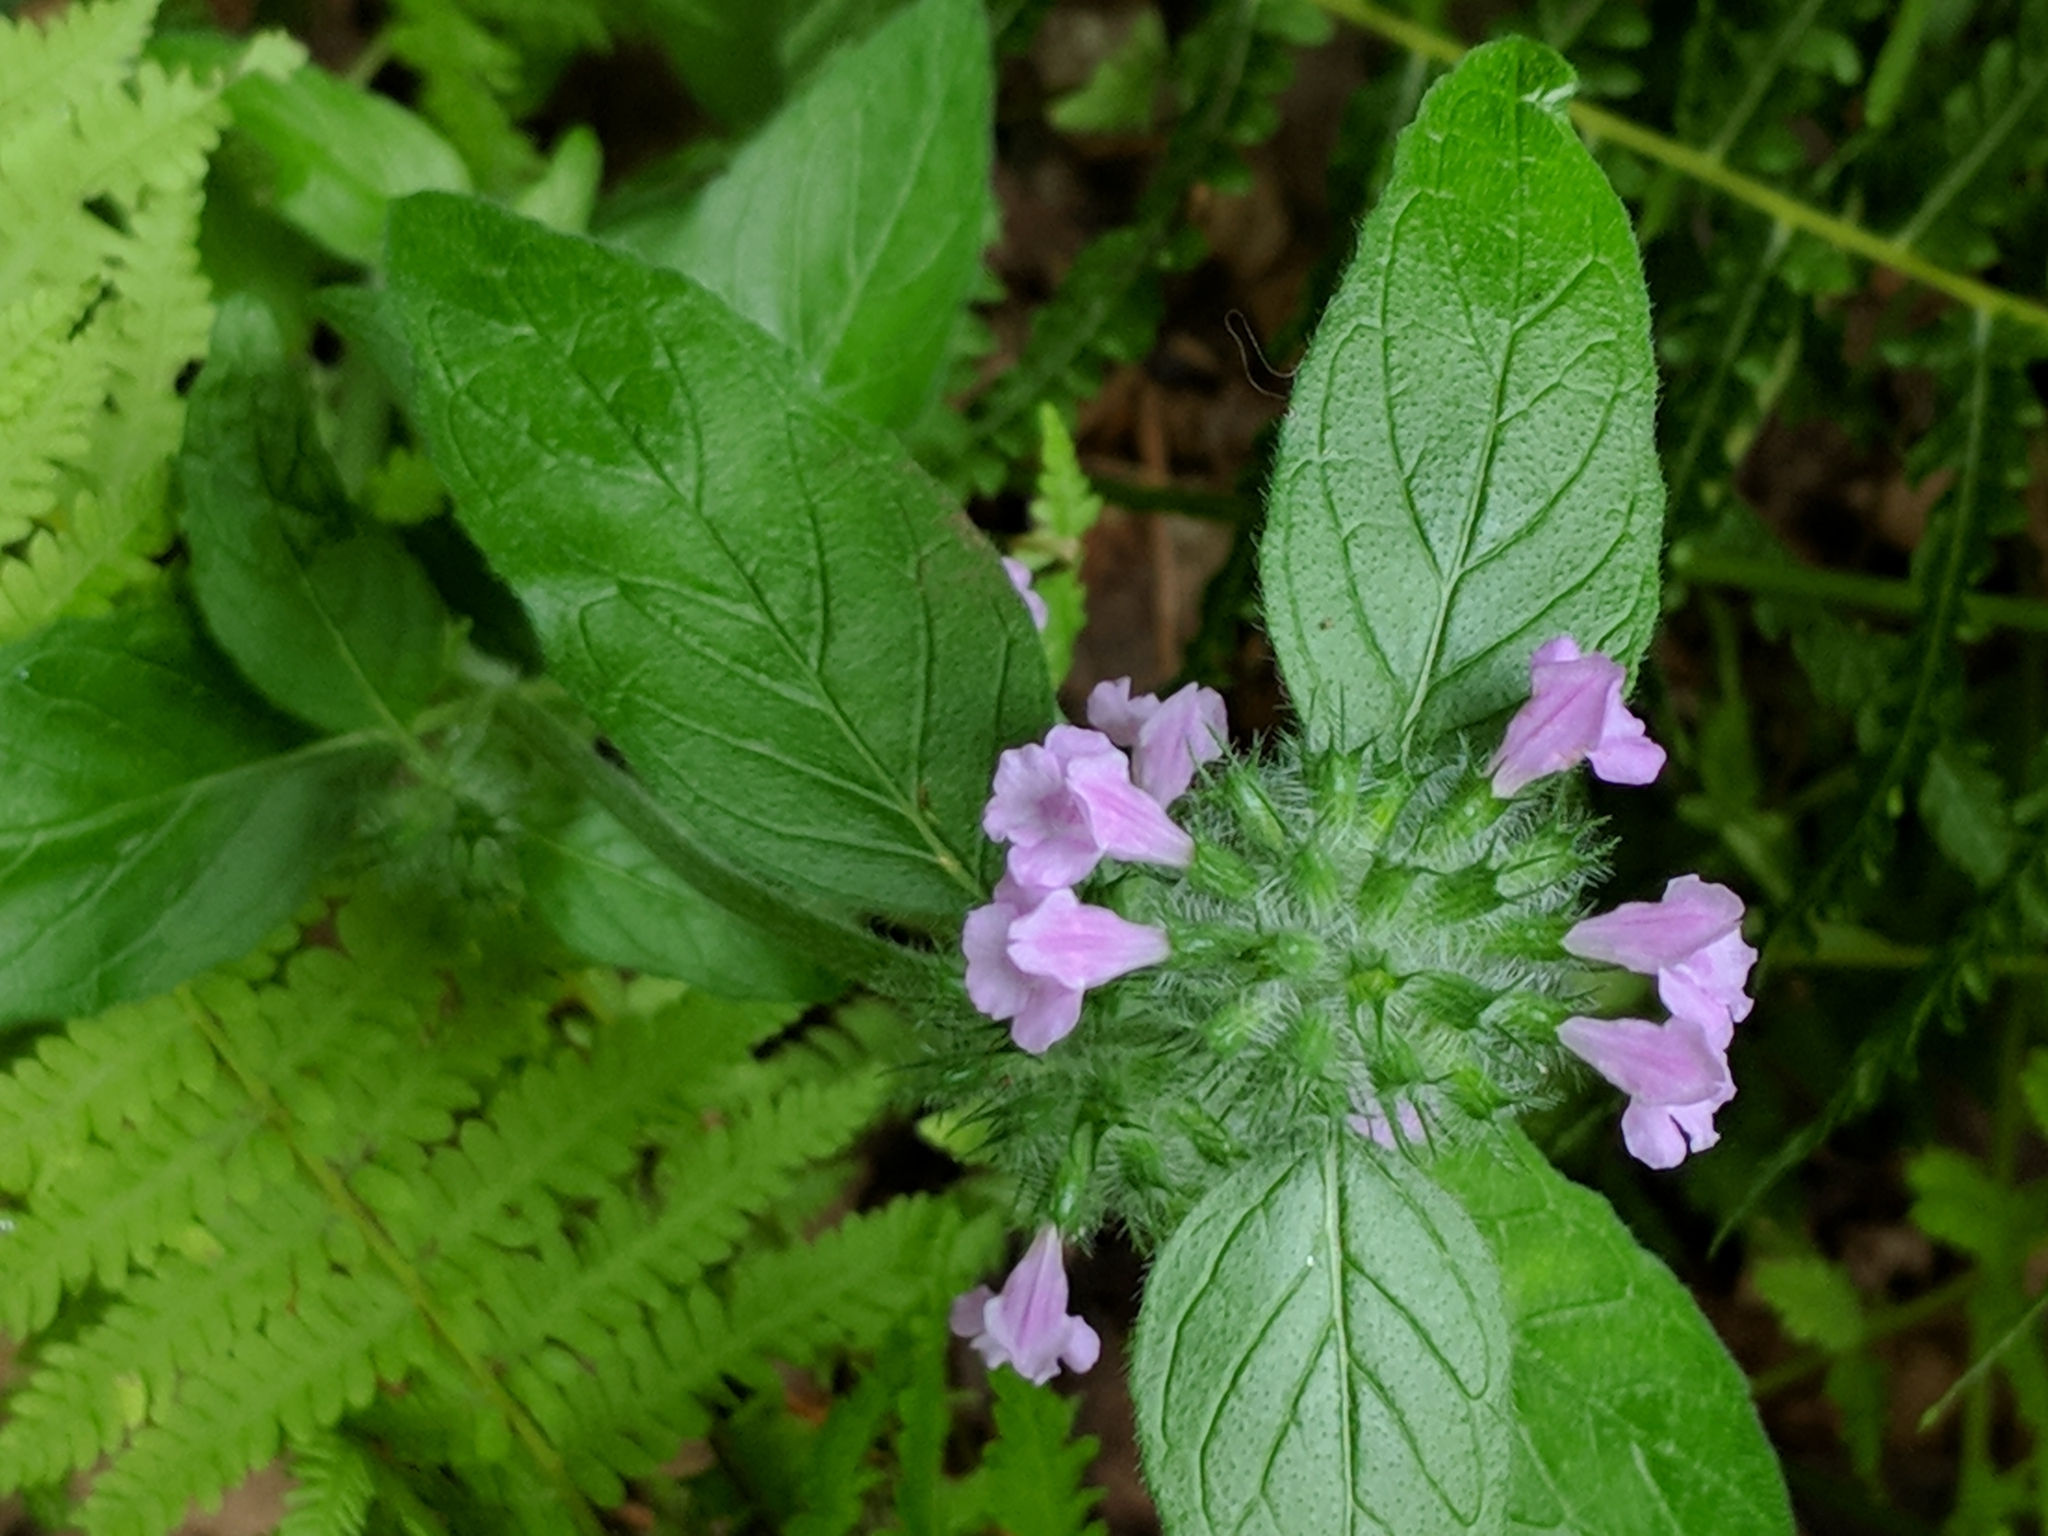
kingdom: Plantae
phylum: Tracheophyta
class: Magnoliopsida
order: Lamiales
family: Lamiaceae
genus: Clinopodium
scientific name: Clinopodium vulgare
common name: Wild basil
